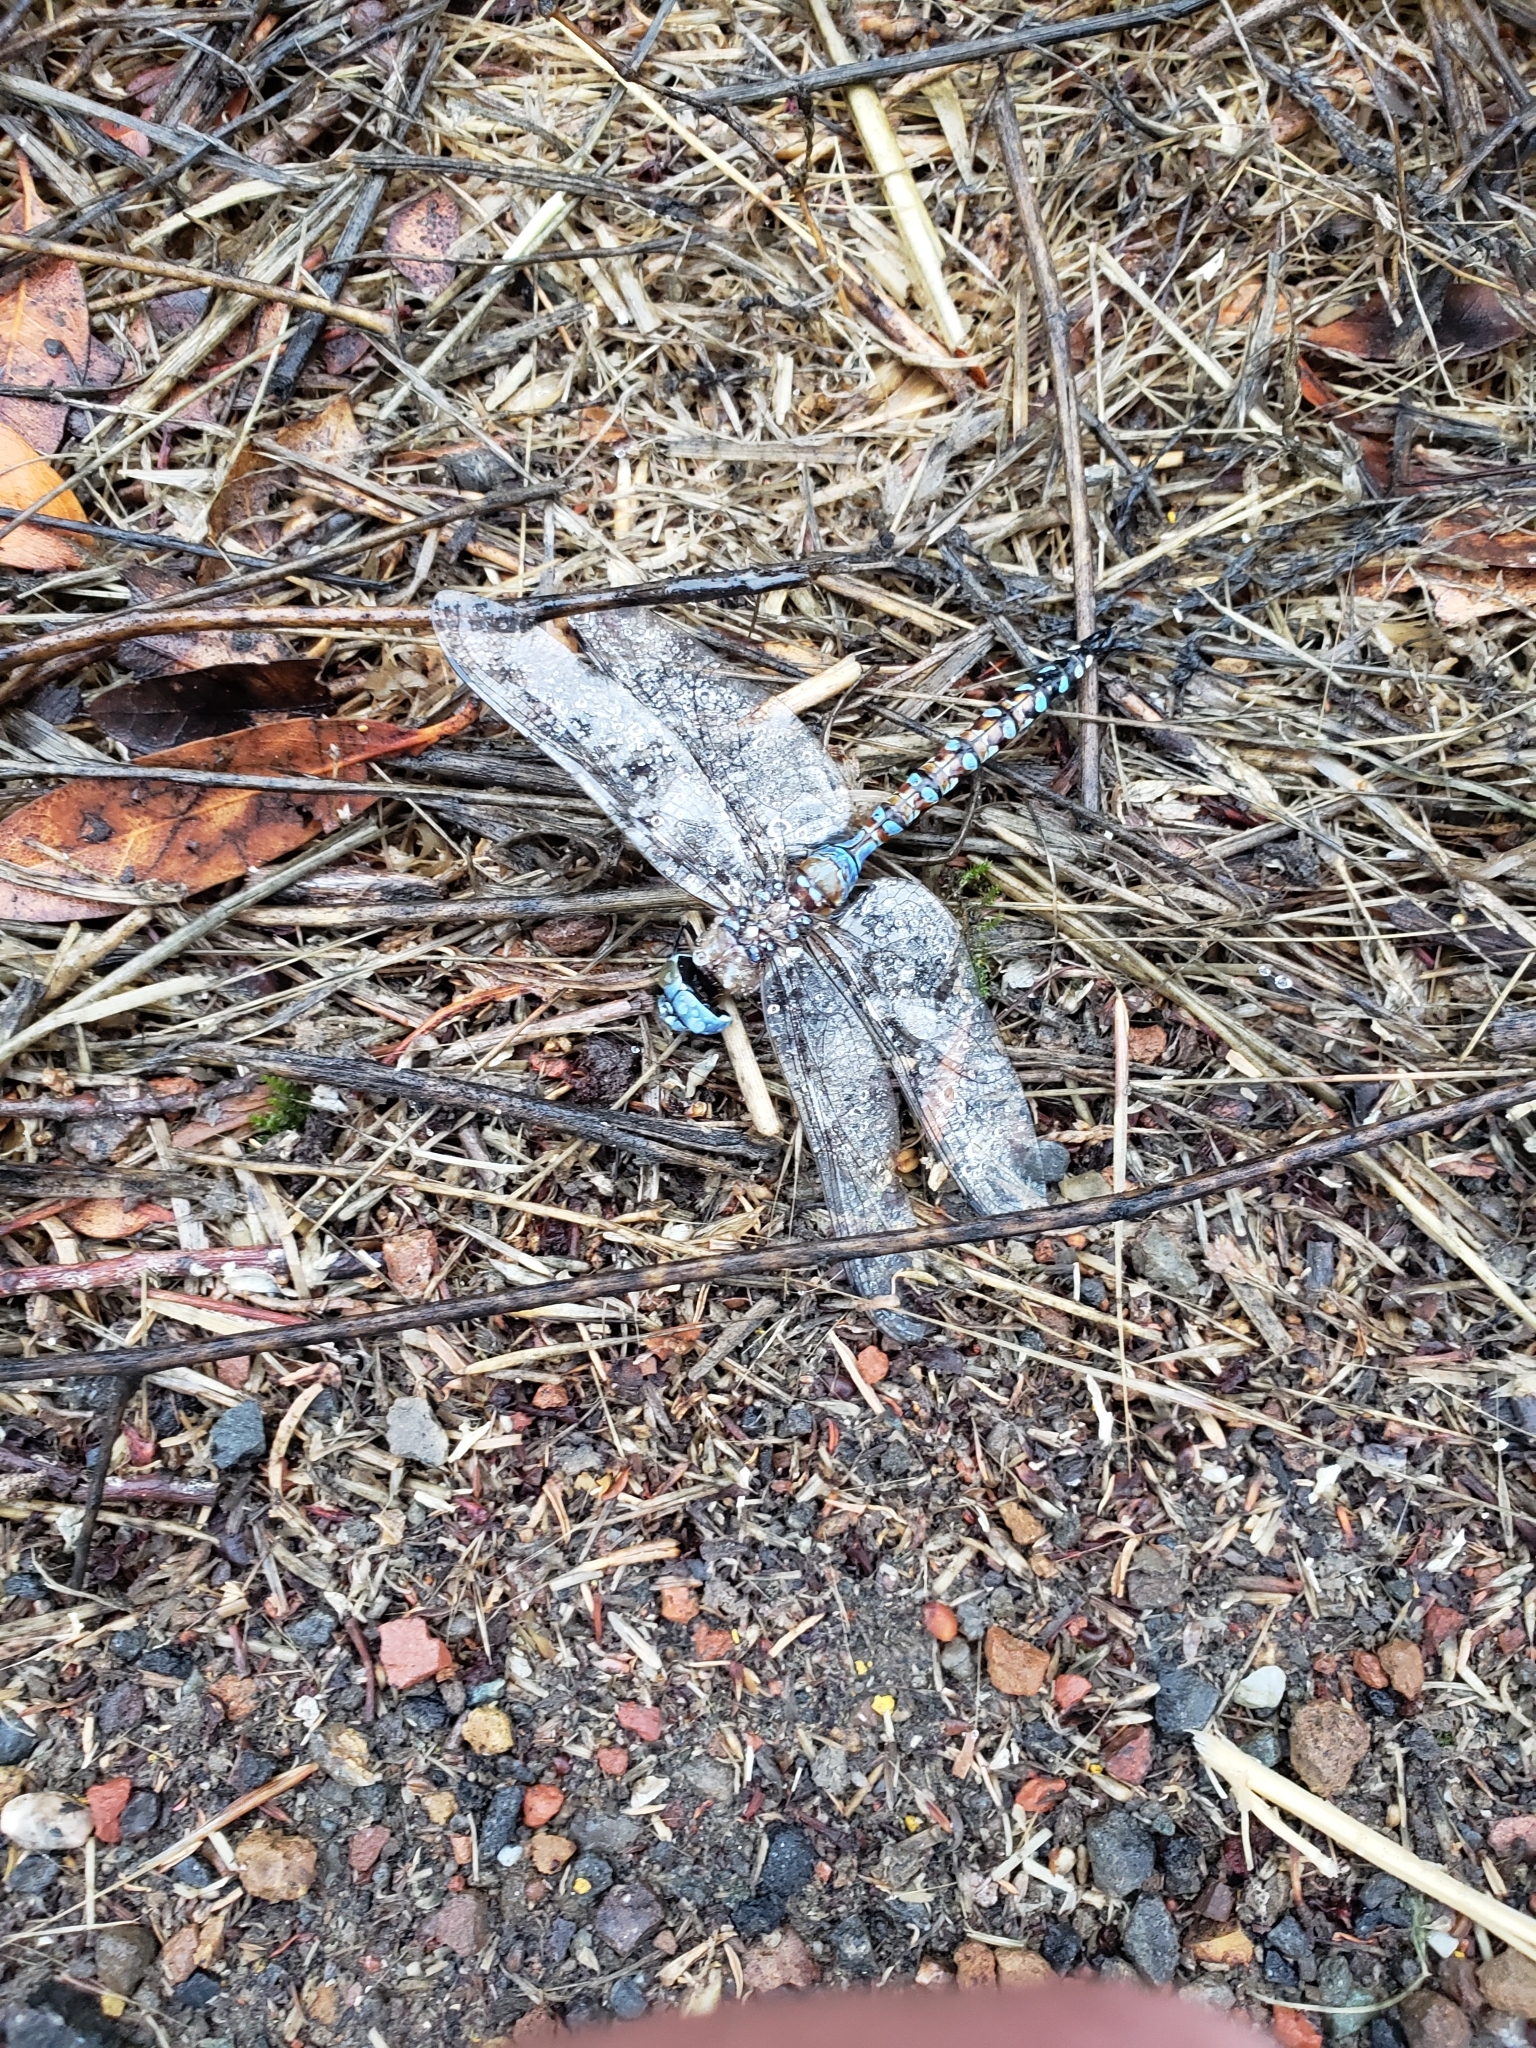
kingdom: Animalia
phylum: Arthropoda
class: Insecta
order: Odonata
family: Aeshnidae
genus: Rhionaeschna
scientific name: Rhionaeschna multicolor
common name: Blue-eyed darner
